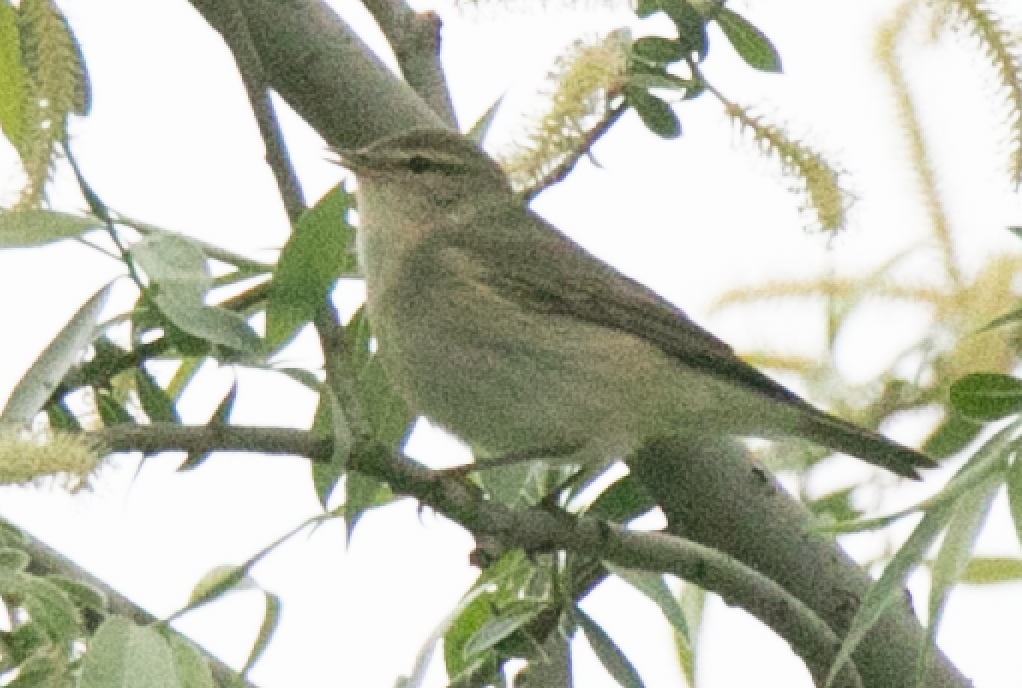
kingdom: Animalia
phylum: Chordata
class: Aves
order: Passeriformes
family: Phylloscopidae
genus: Phylloscopus
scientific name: Phylloscopus trochilus
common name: Willow warbler
